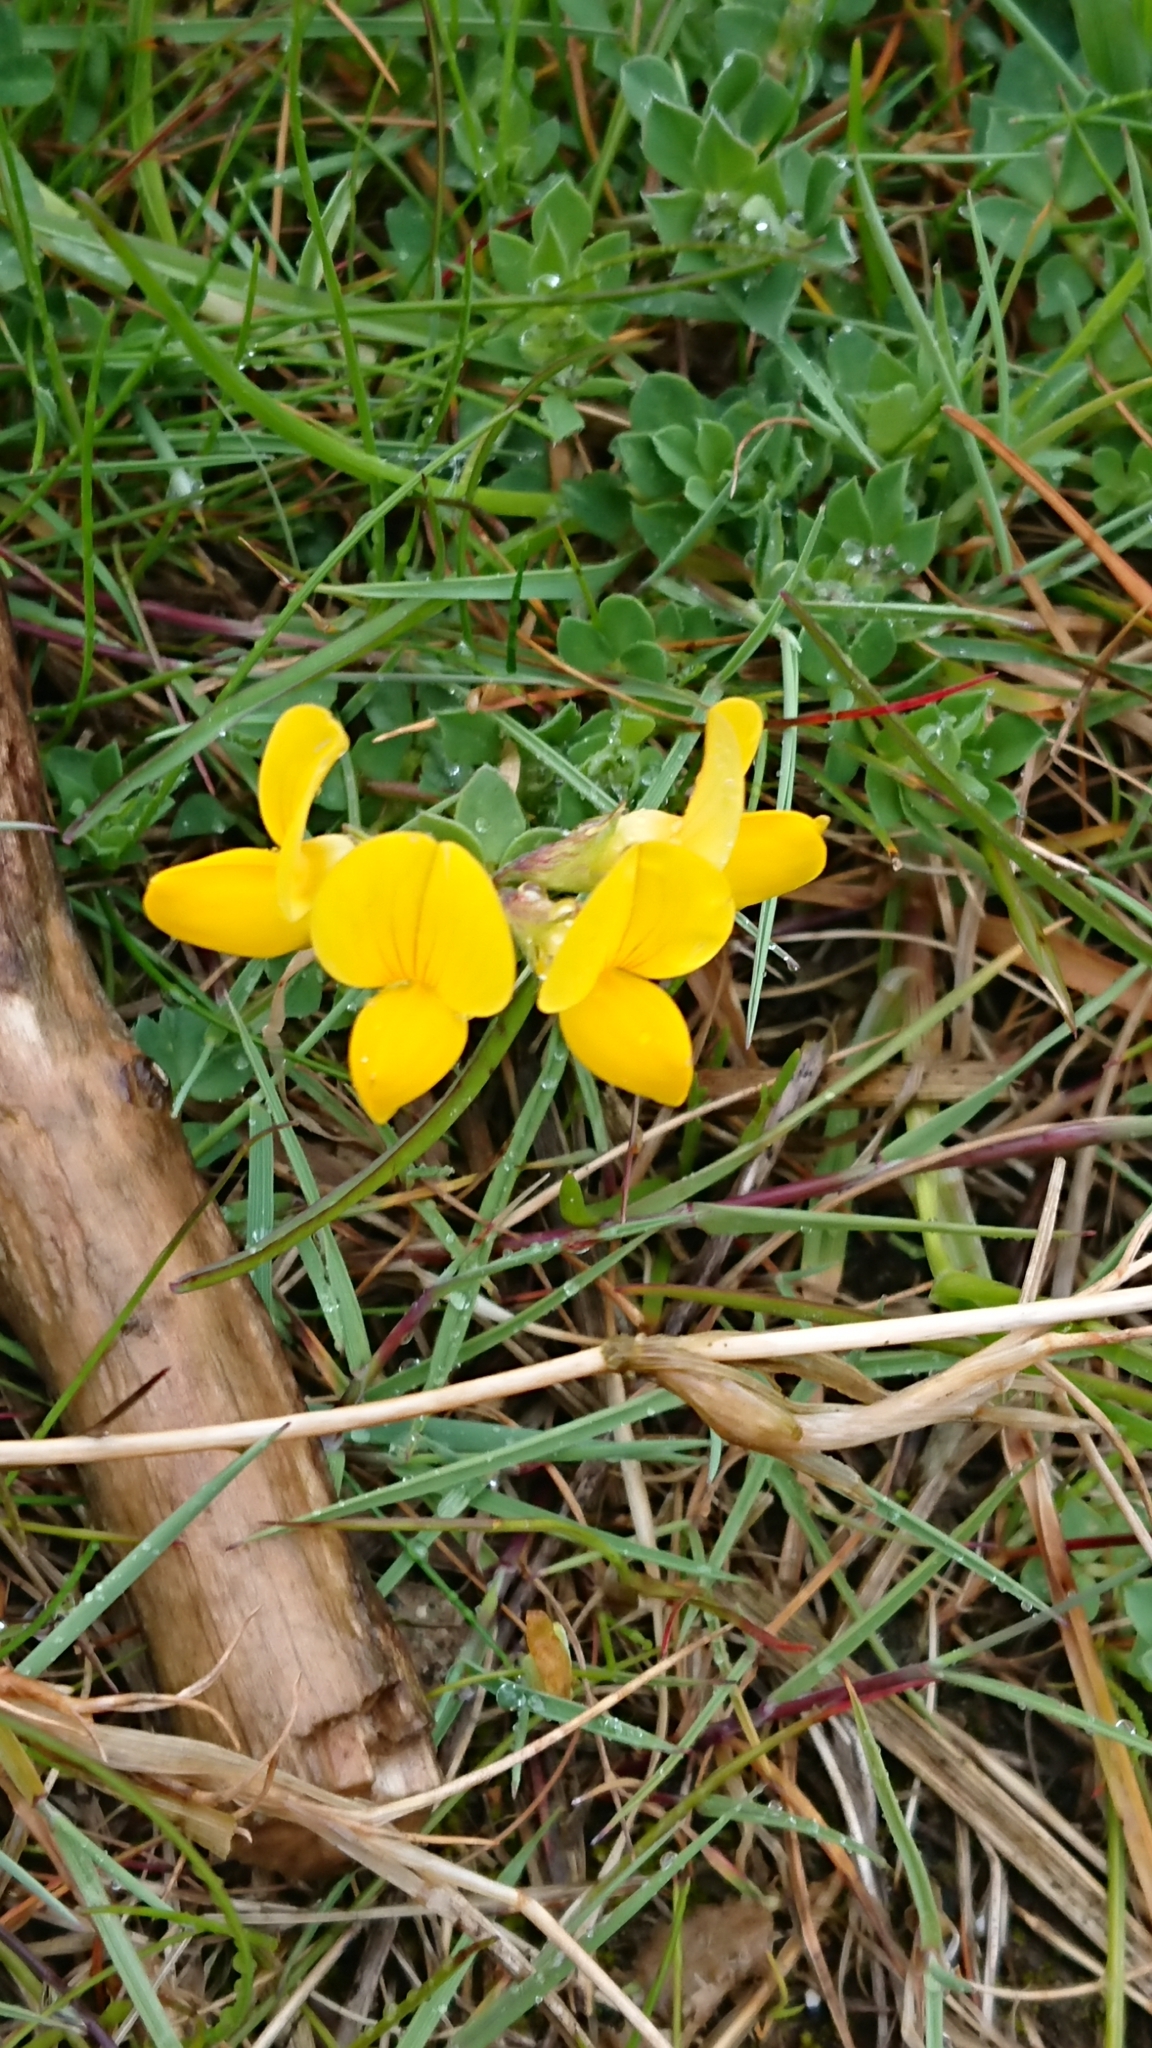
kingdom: Plantae
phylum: Tracheophyta
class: Magnoliopsida
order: Fabales
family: Fabaceae
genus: Lotus
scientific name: Lotus corniculatus
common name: Common bird's-foot-trefoil
